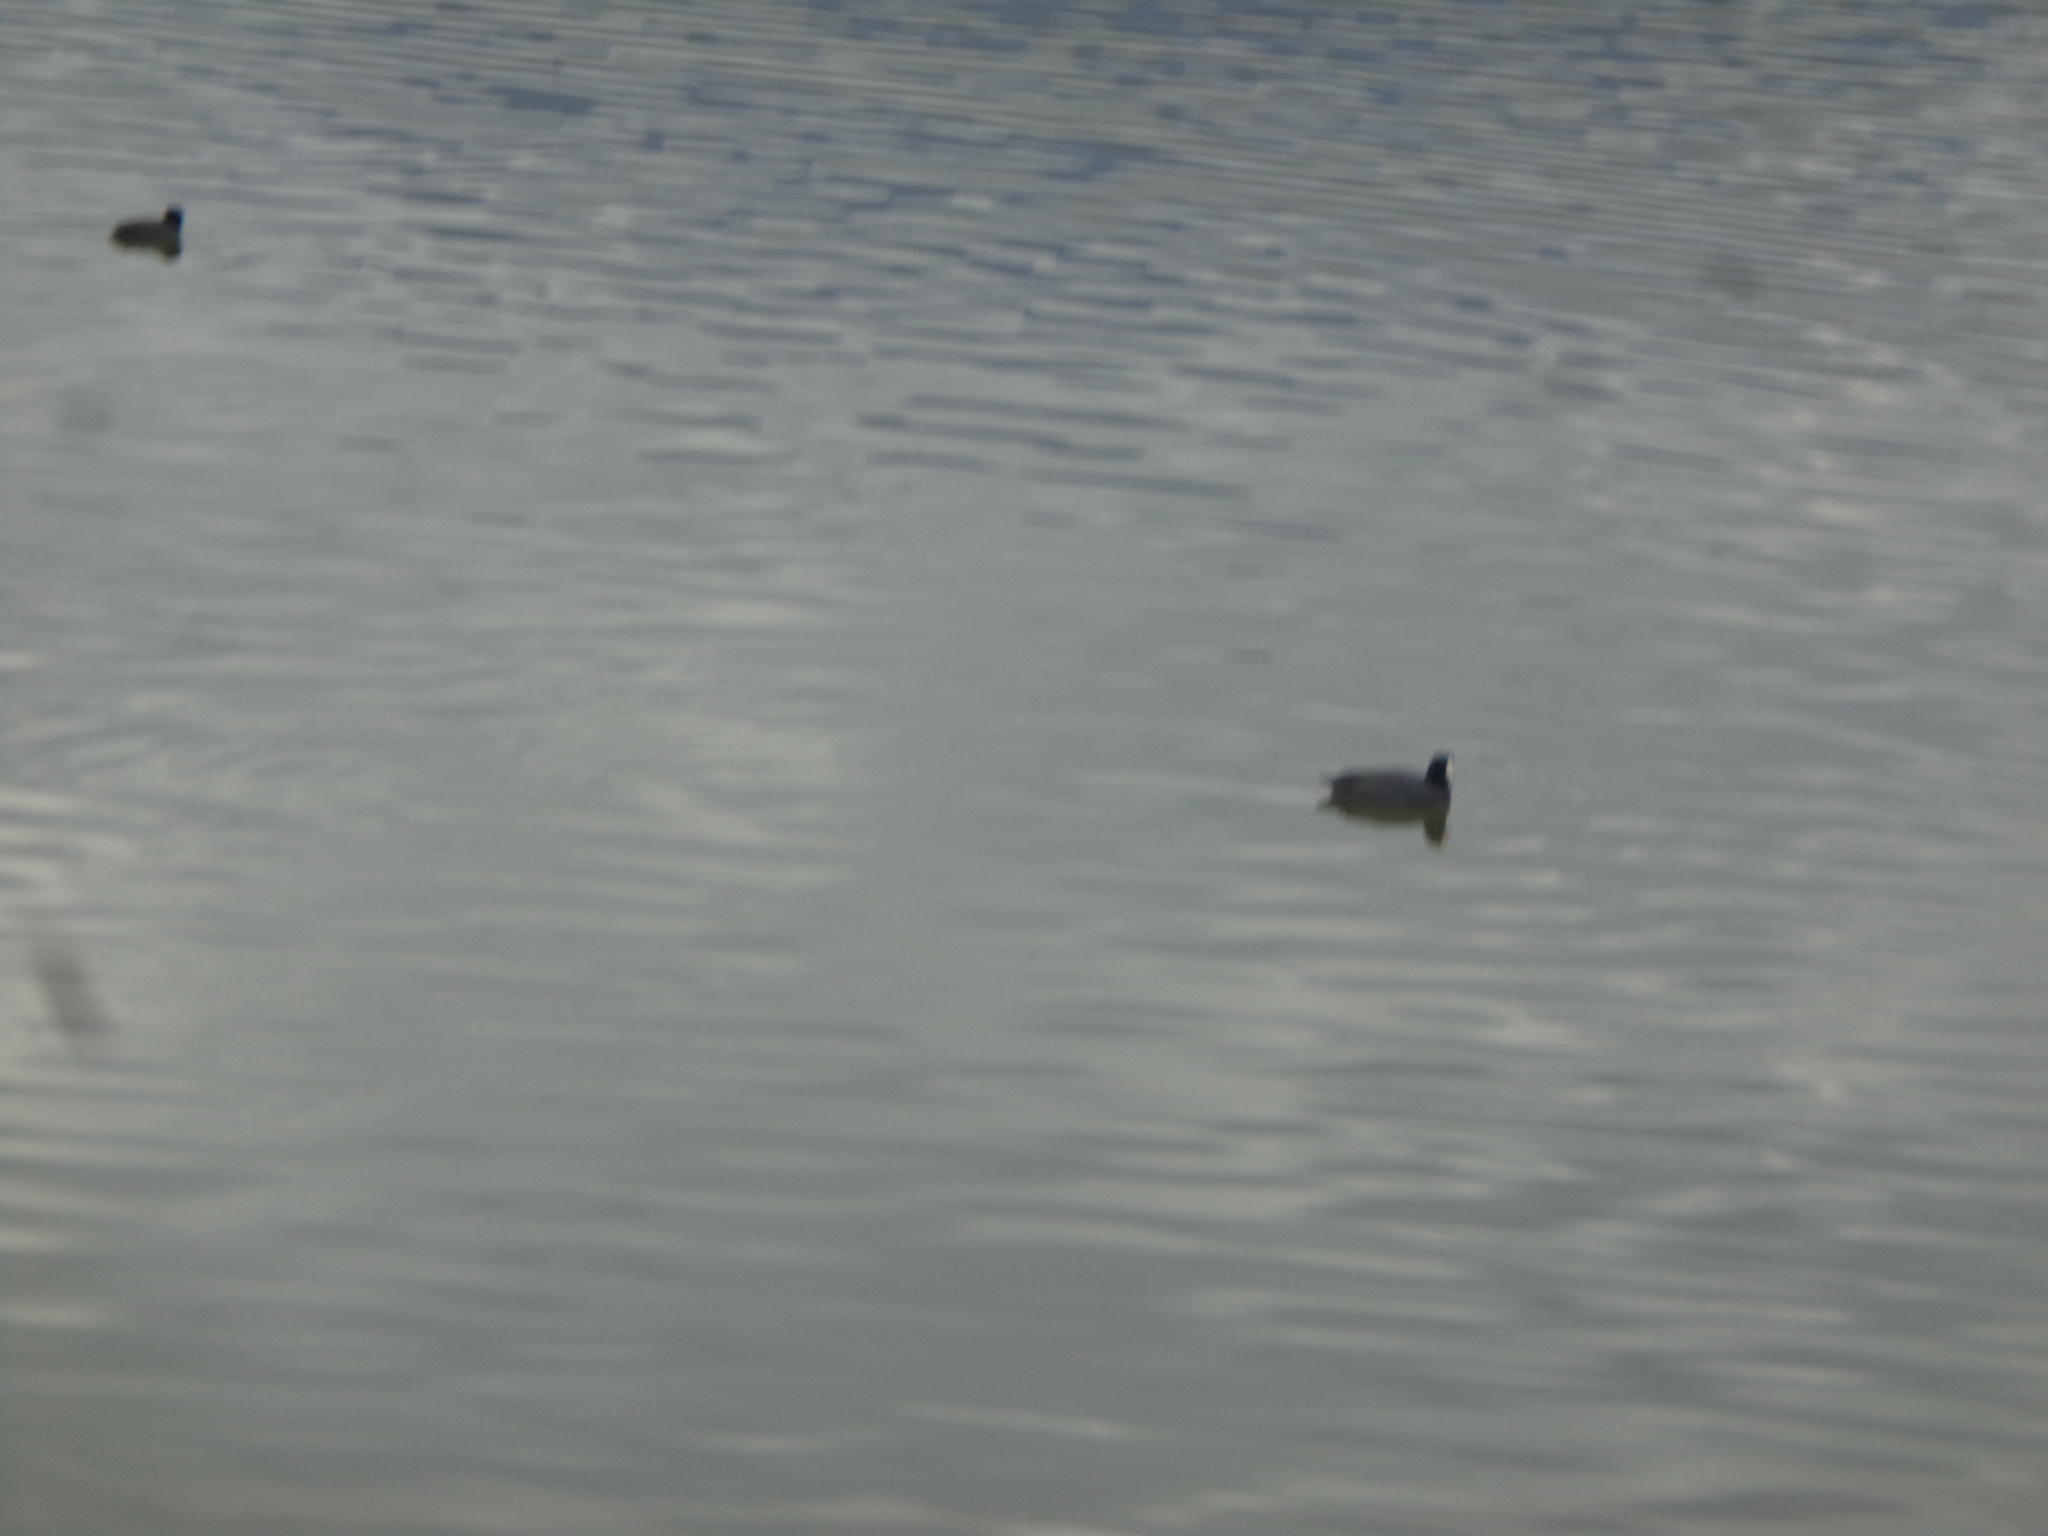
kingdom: Animalia
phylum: Chordata
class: Aves
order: Gruiformes
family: Rallidae
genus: Fulica
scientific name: Fulica americana
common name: American coot
